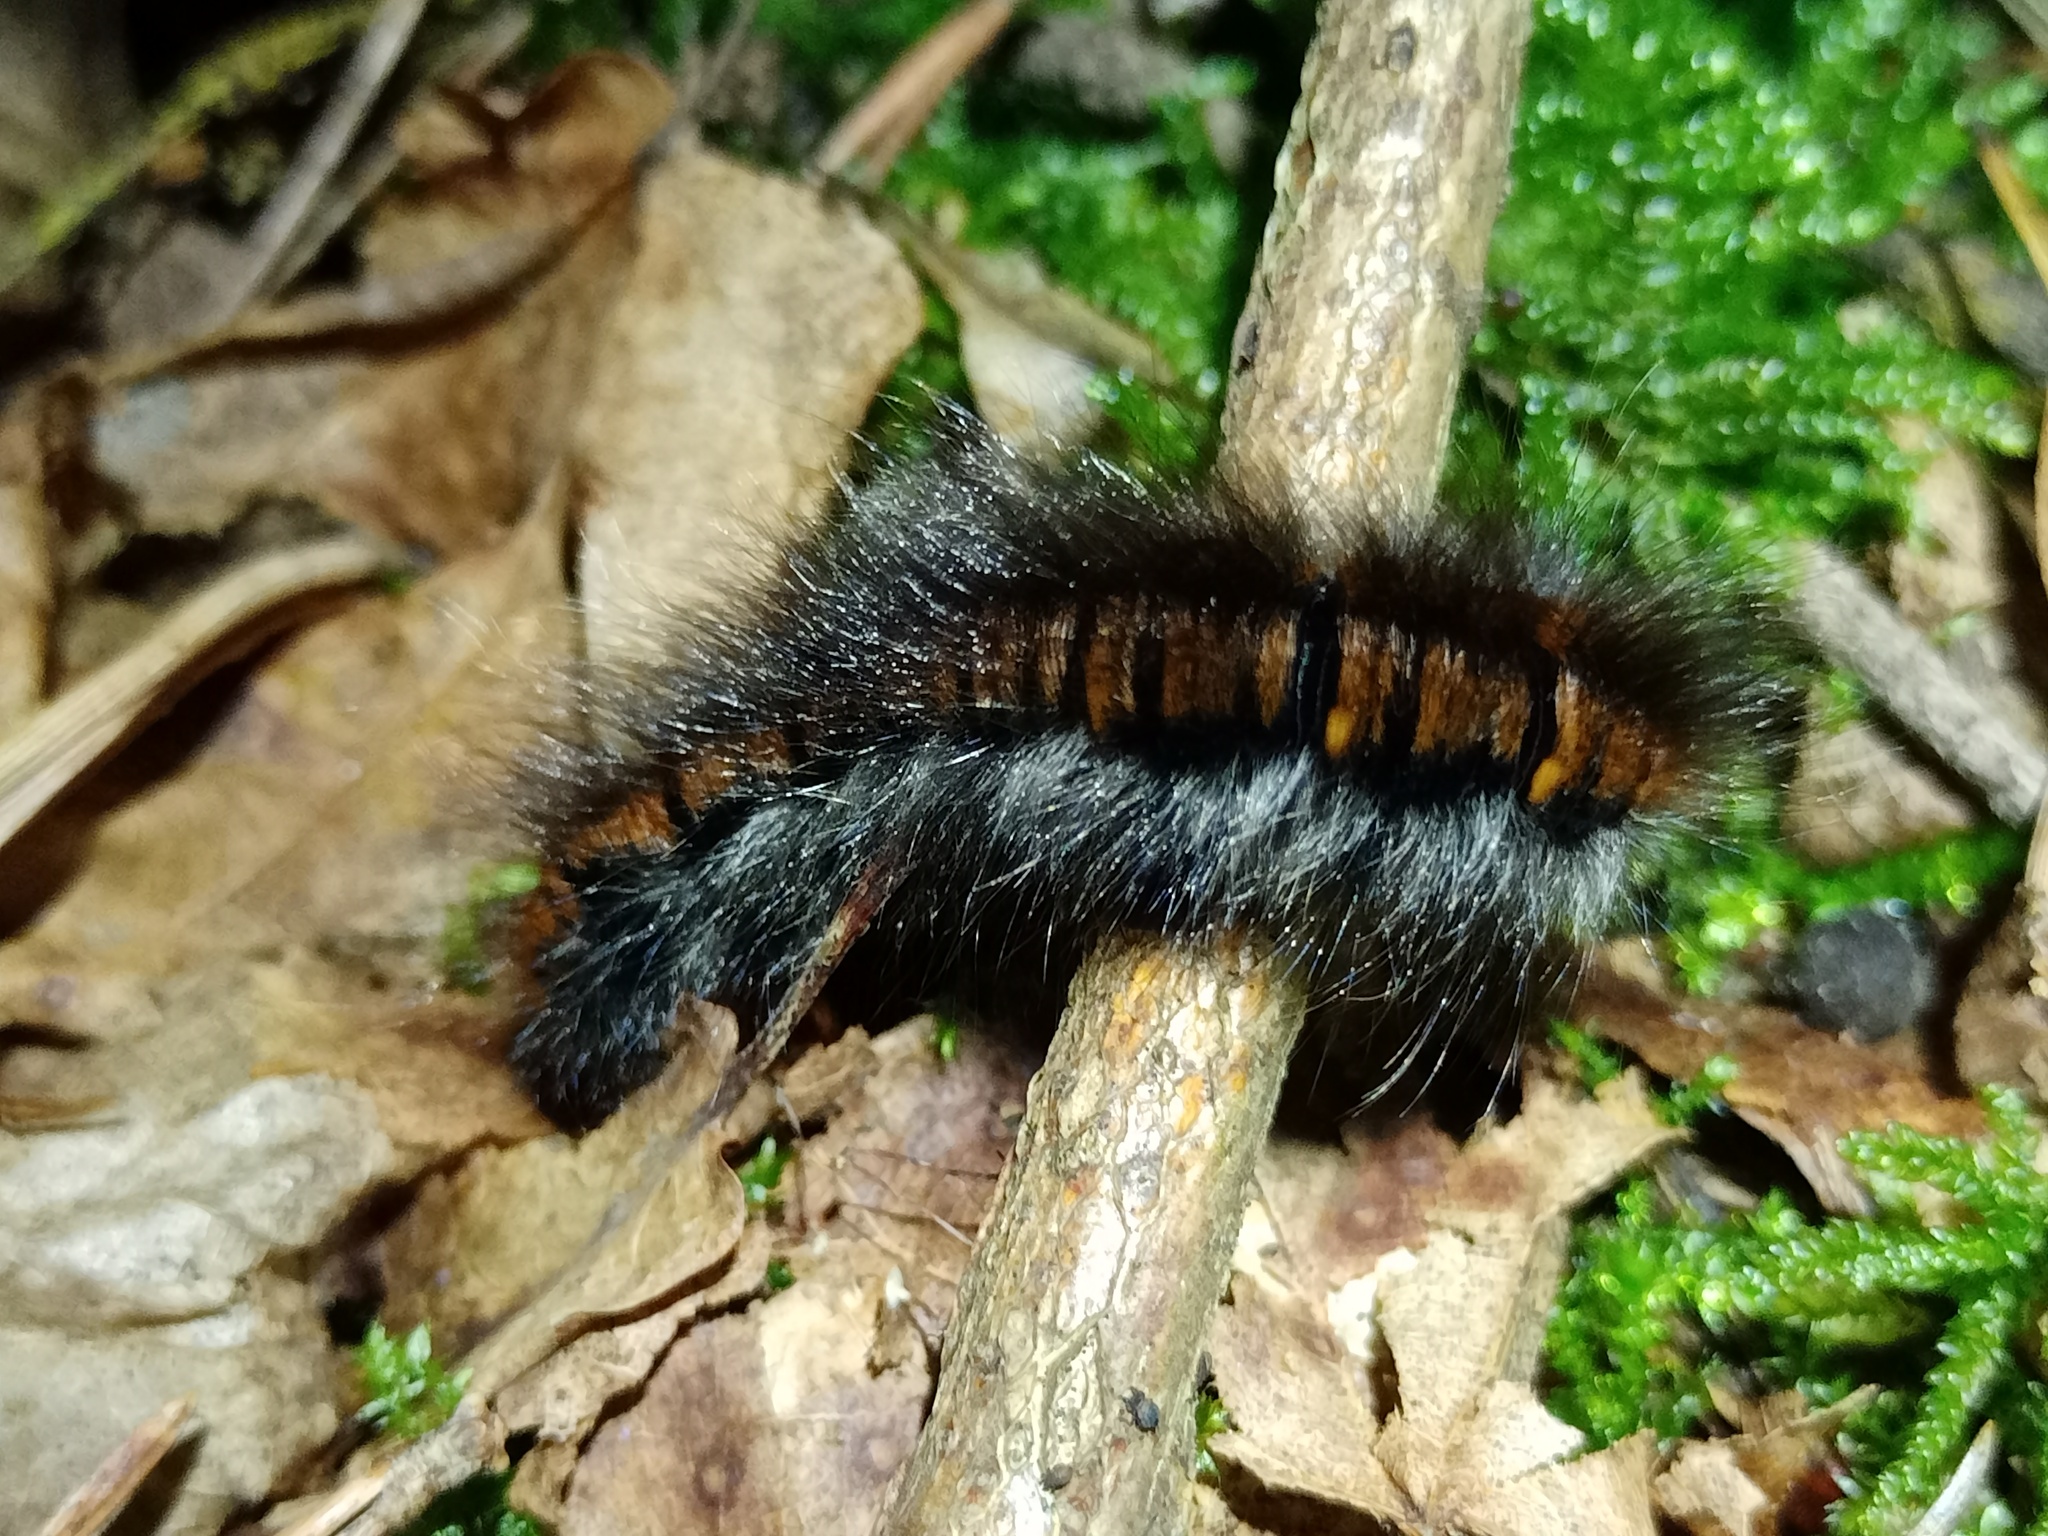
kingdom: Animalia
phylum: Arthropoda
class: Insecta
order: Lepidoptera
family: Lasiocampidae
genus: Macrothylacia
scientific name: Macrothylacia rubi
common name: Fox moth
